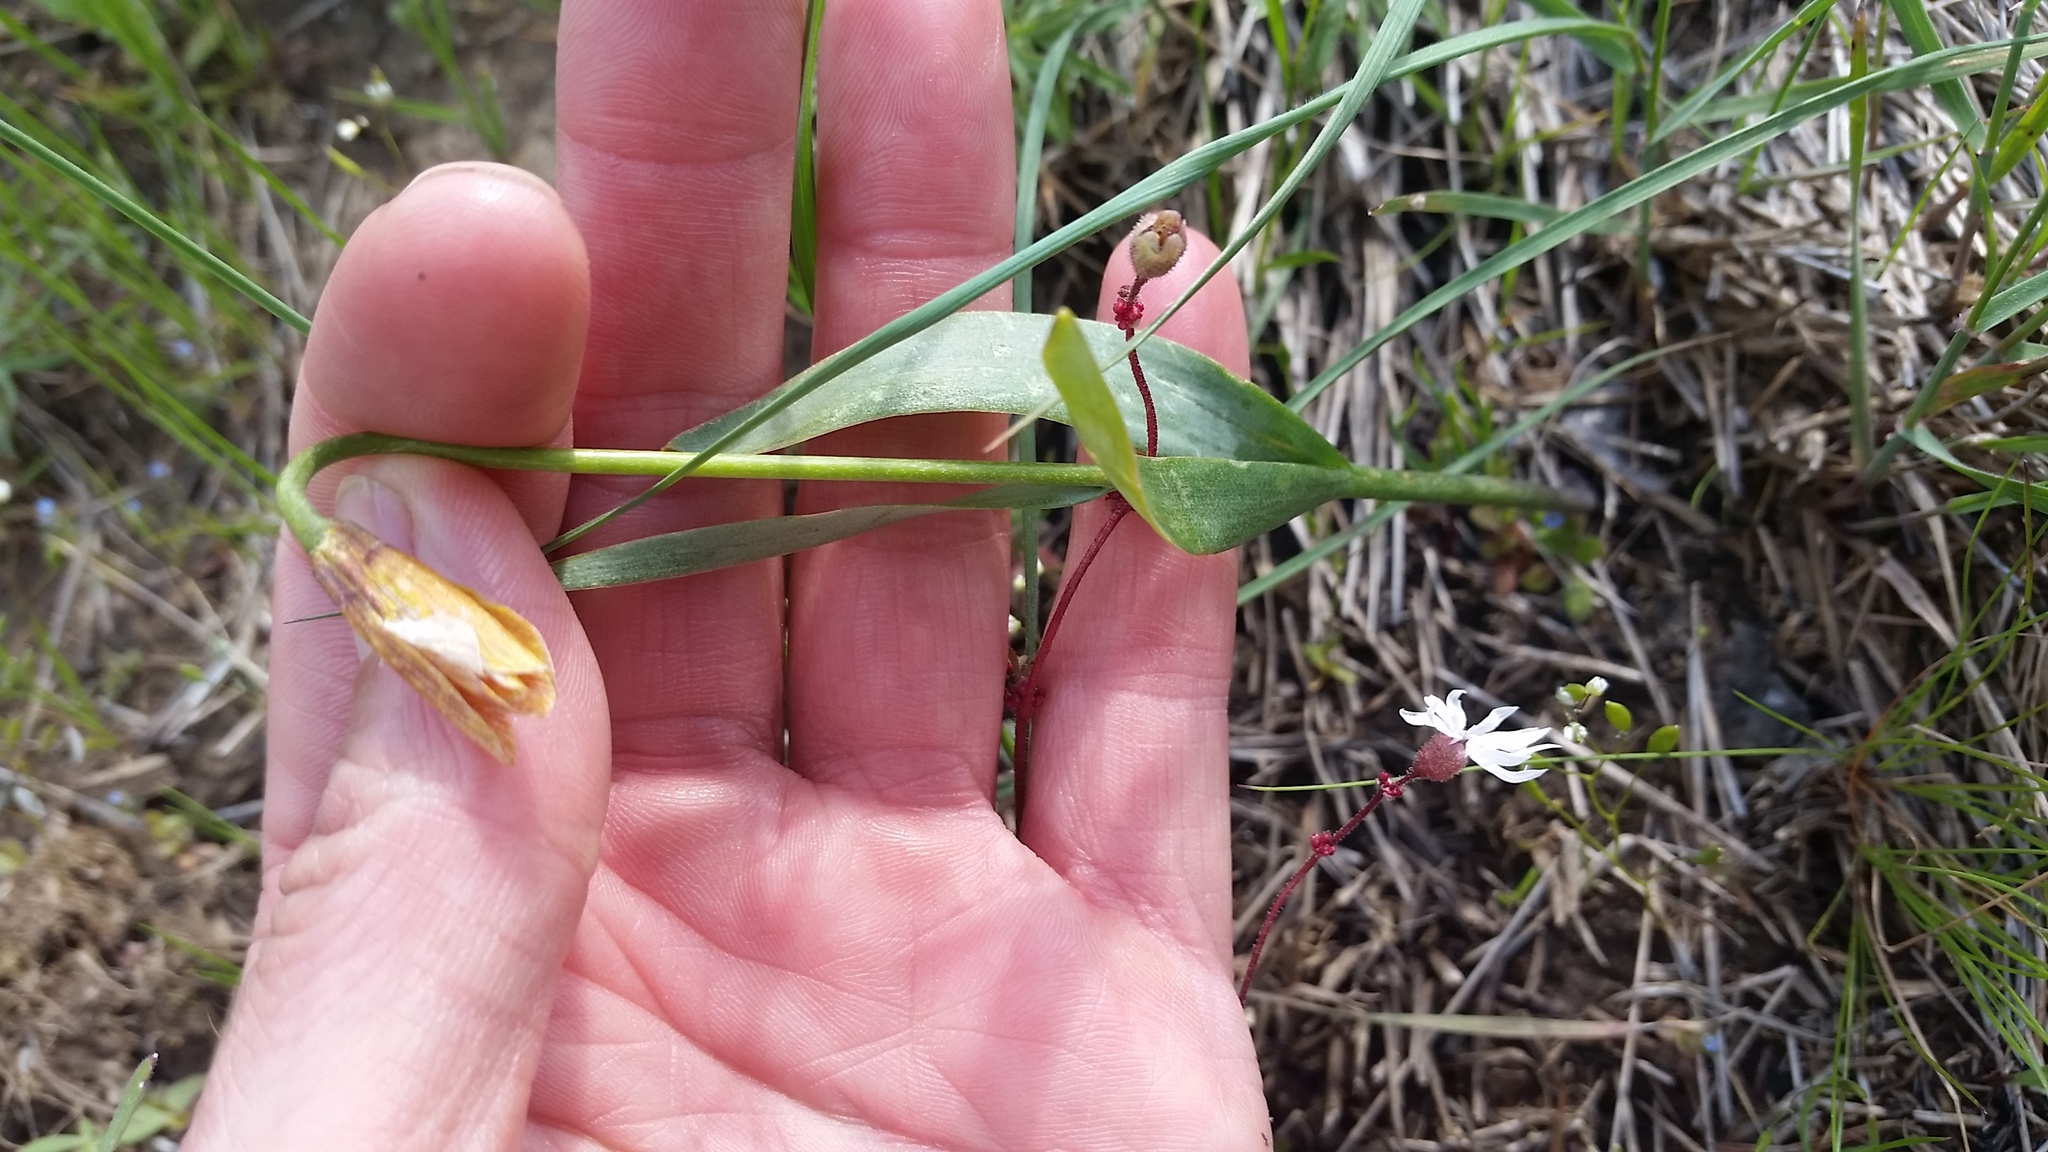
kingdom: Plantae
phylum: Tracheophyta
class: Liliopsida
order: Liliales
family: Liliaceae
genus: Fritillaria
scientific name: Fritillaria pudica
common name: Yellow fritillary
